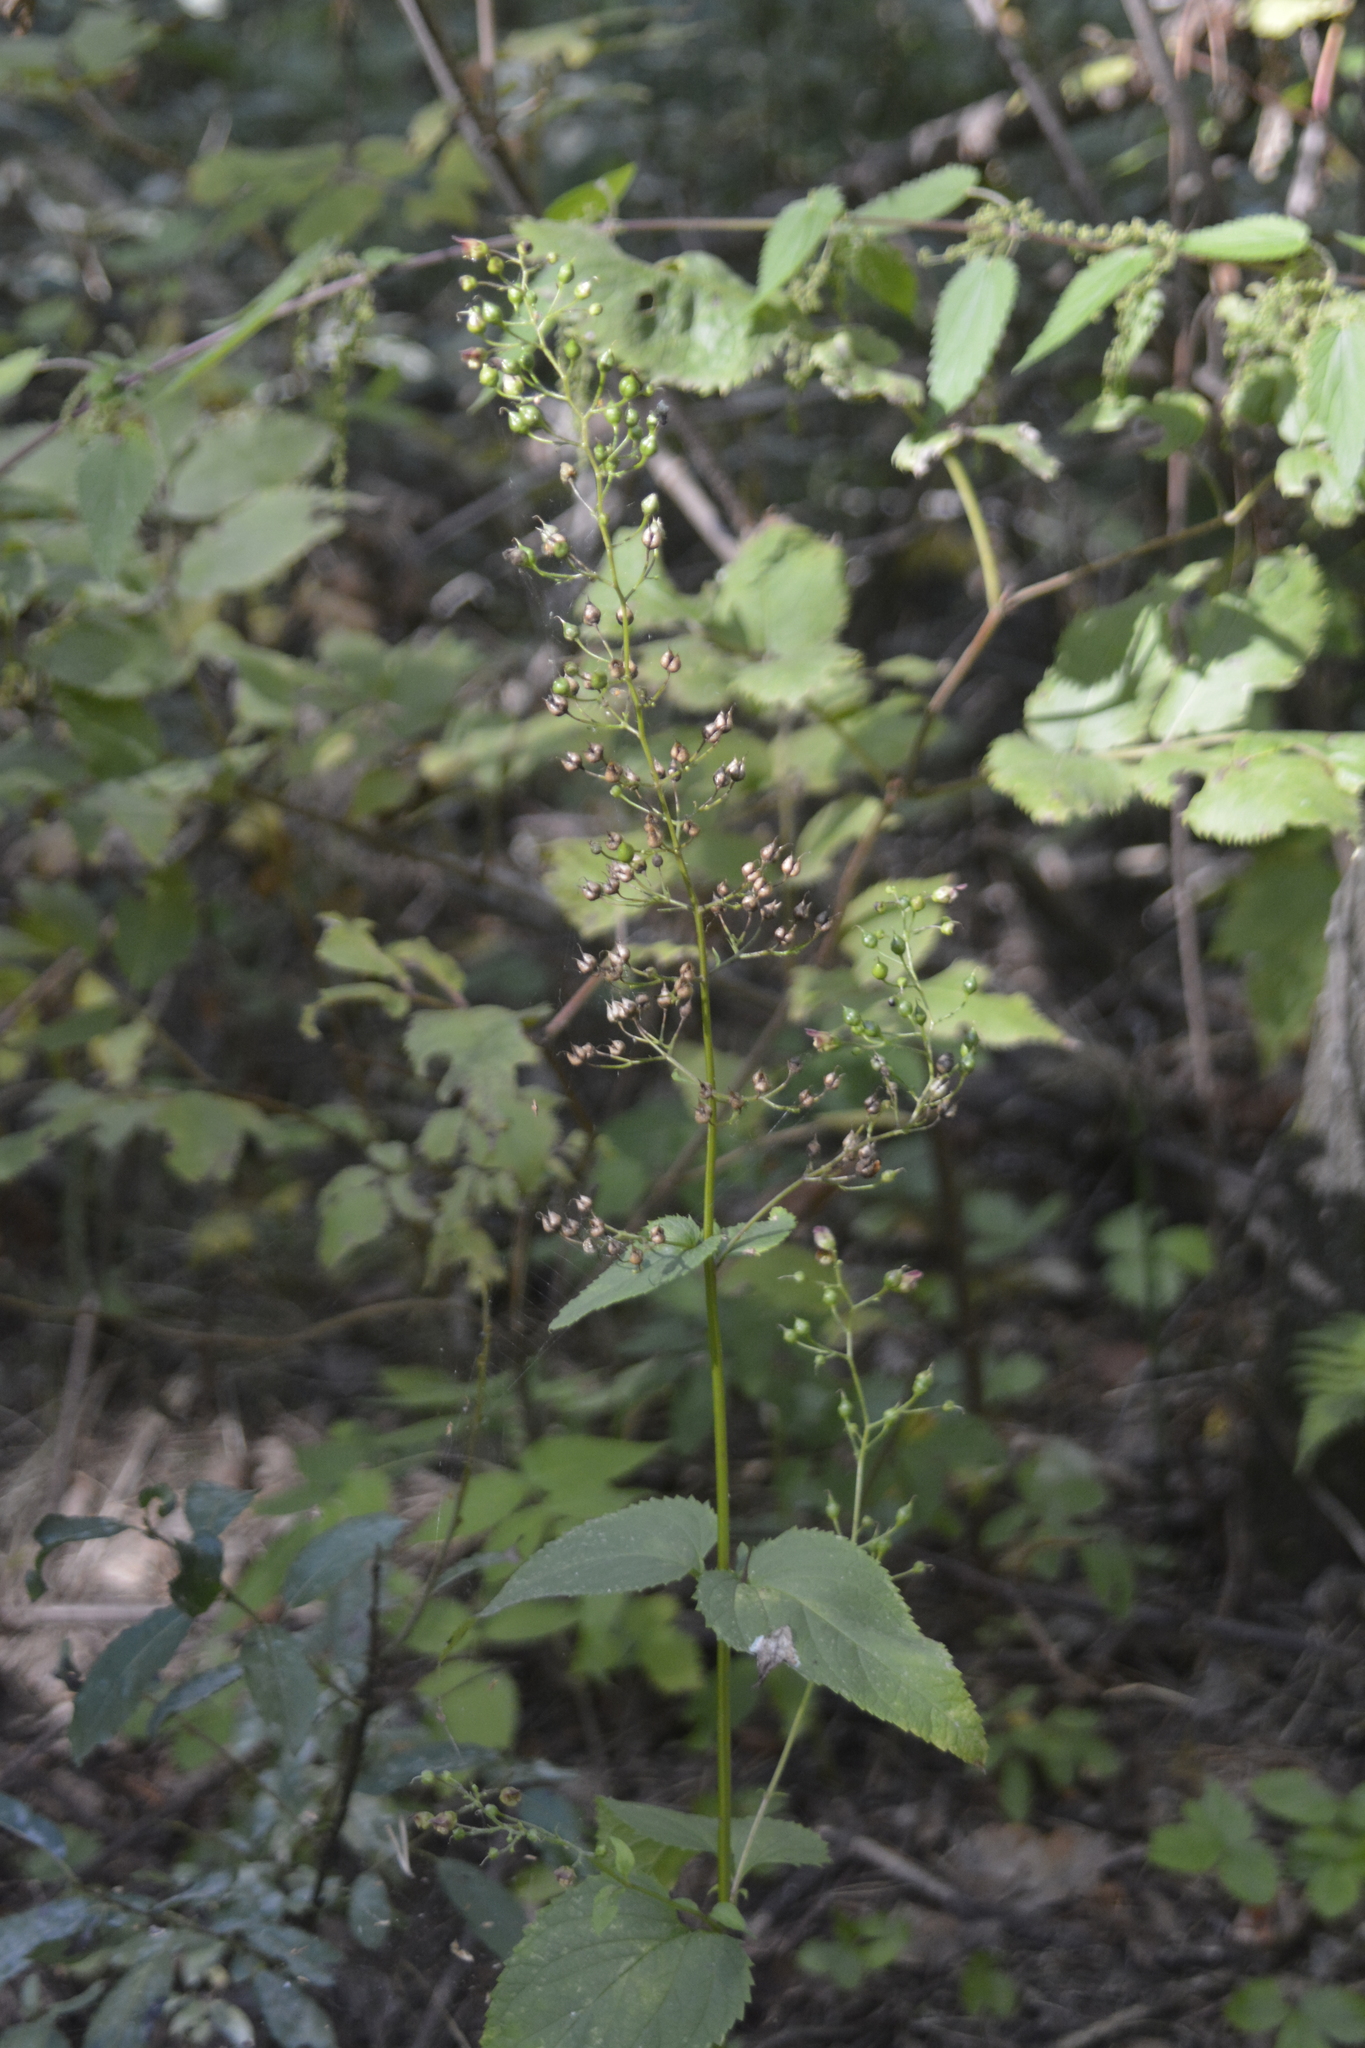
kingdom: Plantae
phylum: Tracheophyta
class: Magnoliopsida
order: Lamiales
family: Scrophulariaceae
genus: Scrophularia
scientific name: Scrophularia nodosa
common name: Common figwort
